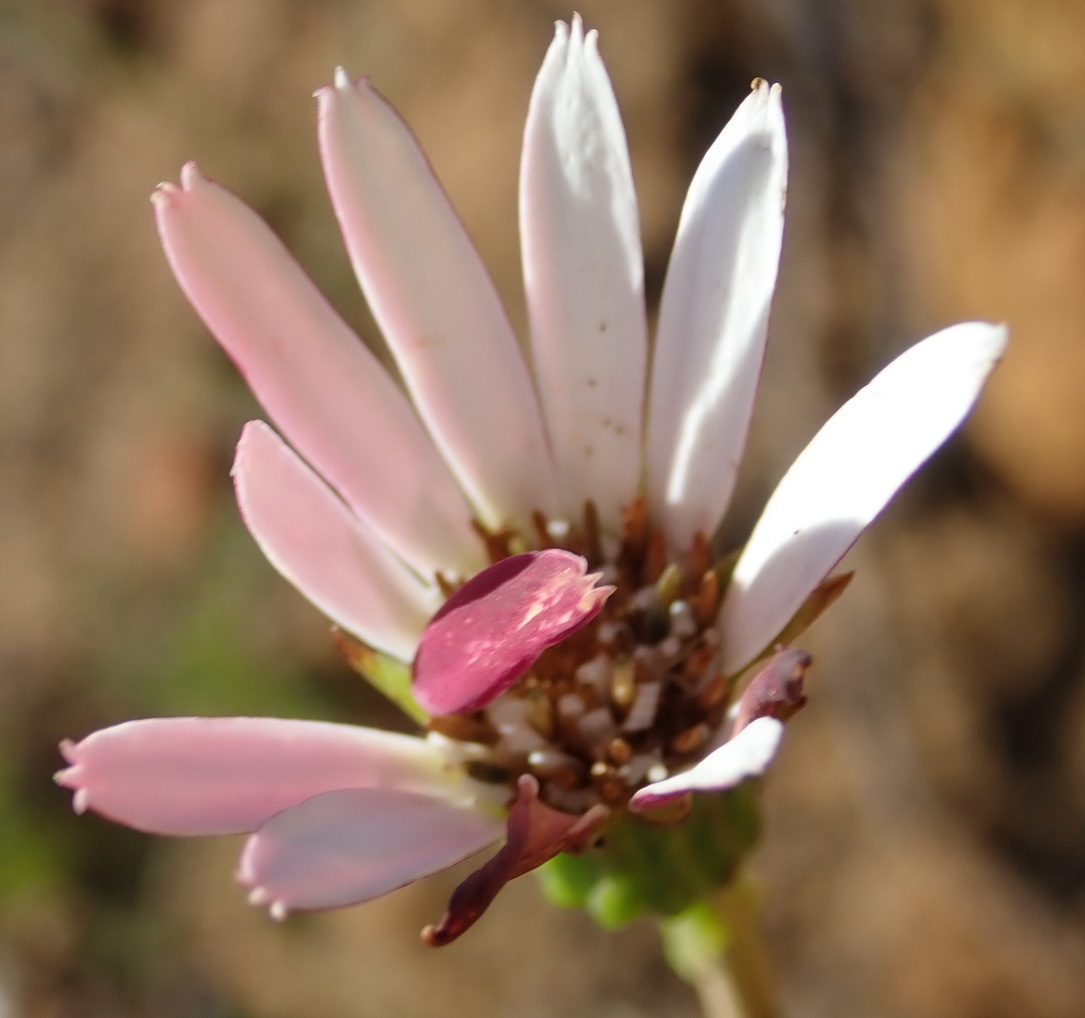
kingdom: Plantae
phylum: Tracheophyta
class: Magnoliopsida
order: Asterales
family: Asteraceae
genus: Gerbera
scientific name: Gerbera serrata
